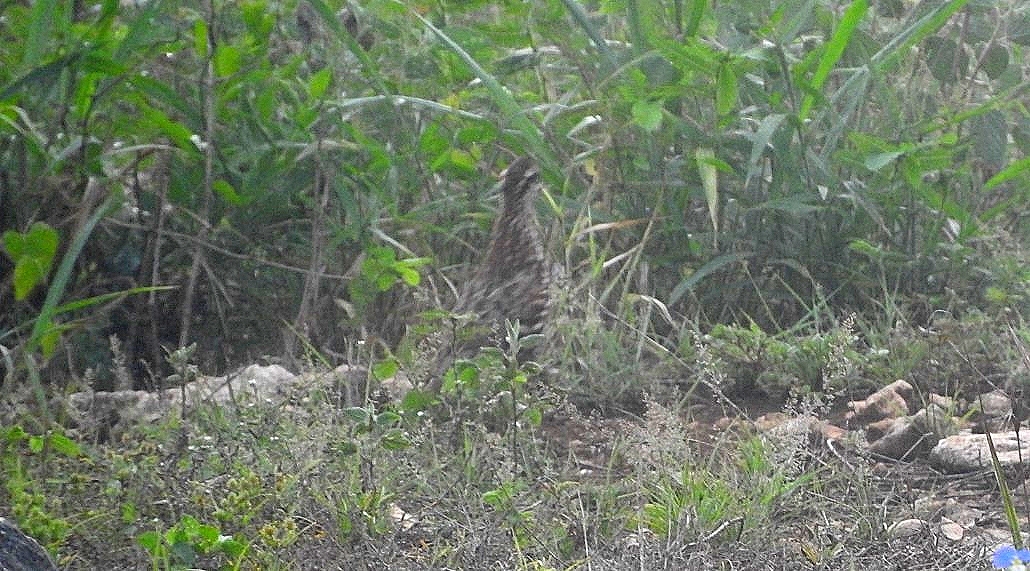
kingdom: Animalia
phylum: Chordata
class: Aves
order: Galliformes
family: Odontophoridae
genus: Colinus
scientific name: Colinus nigrogularis
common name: Yucatan bobwhite
